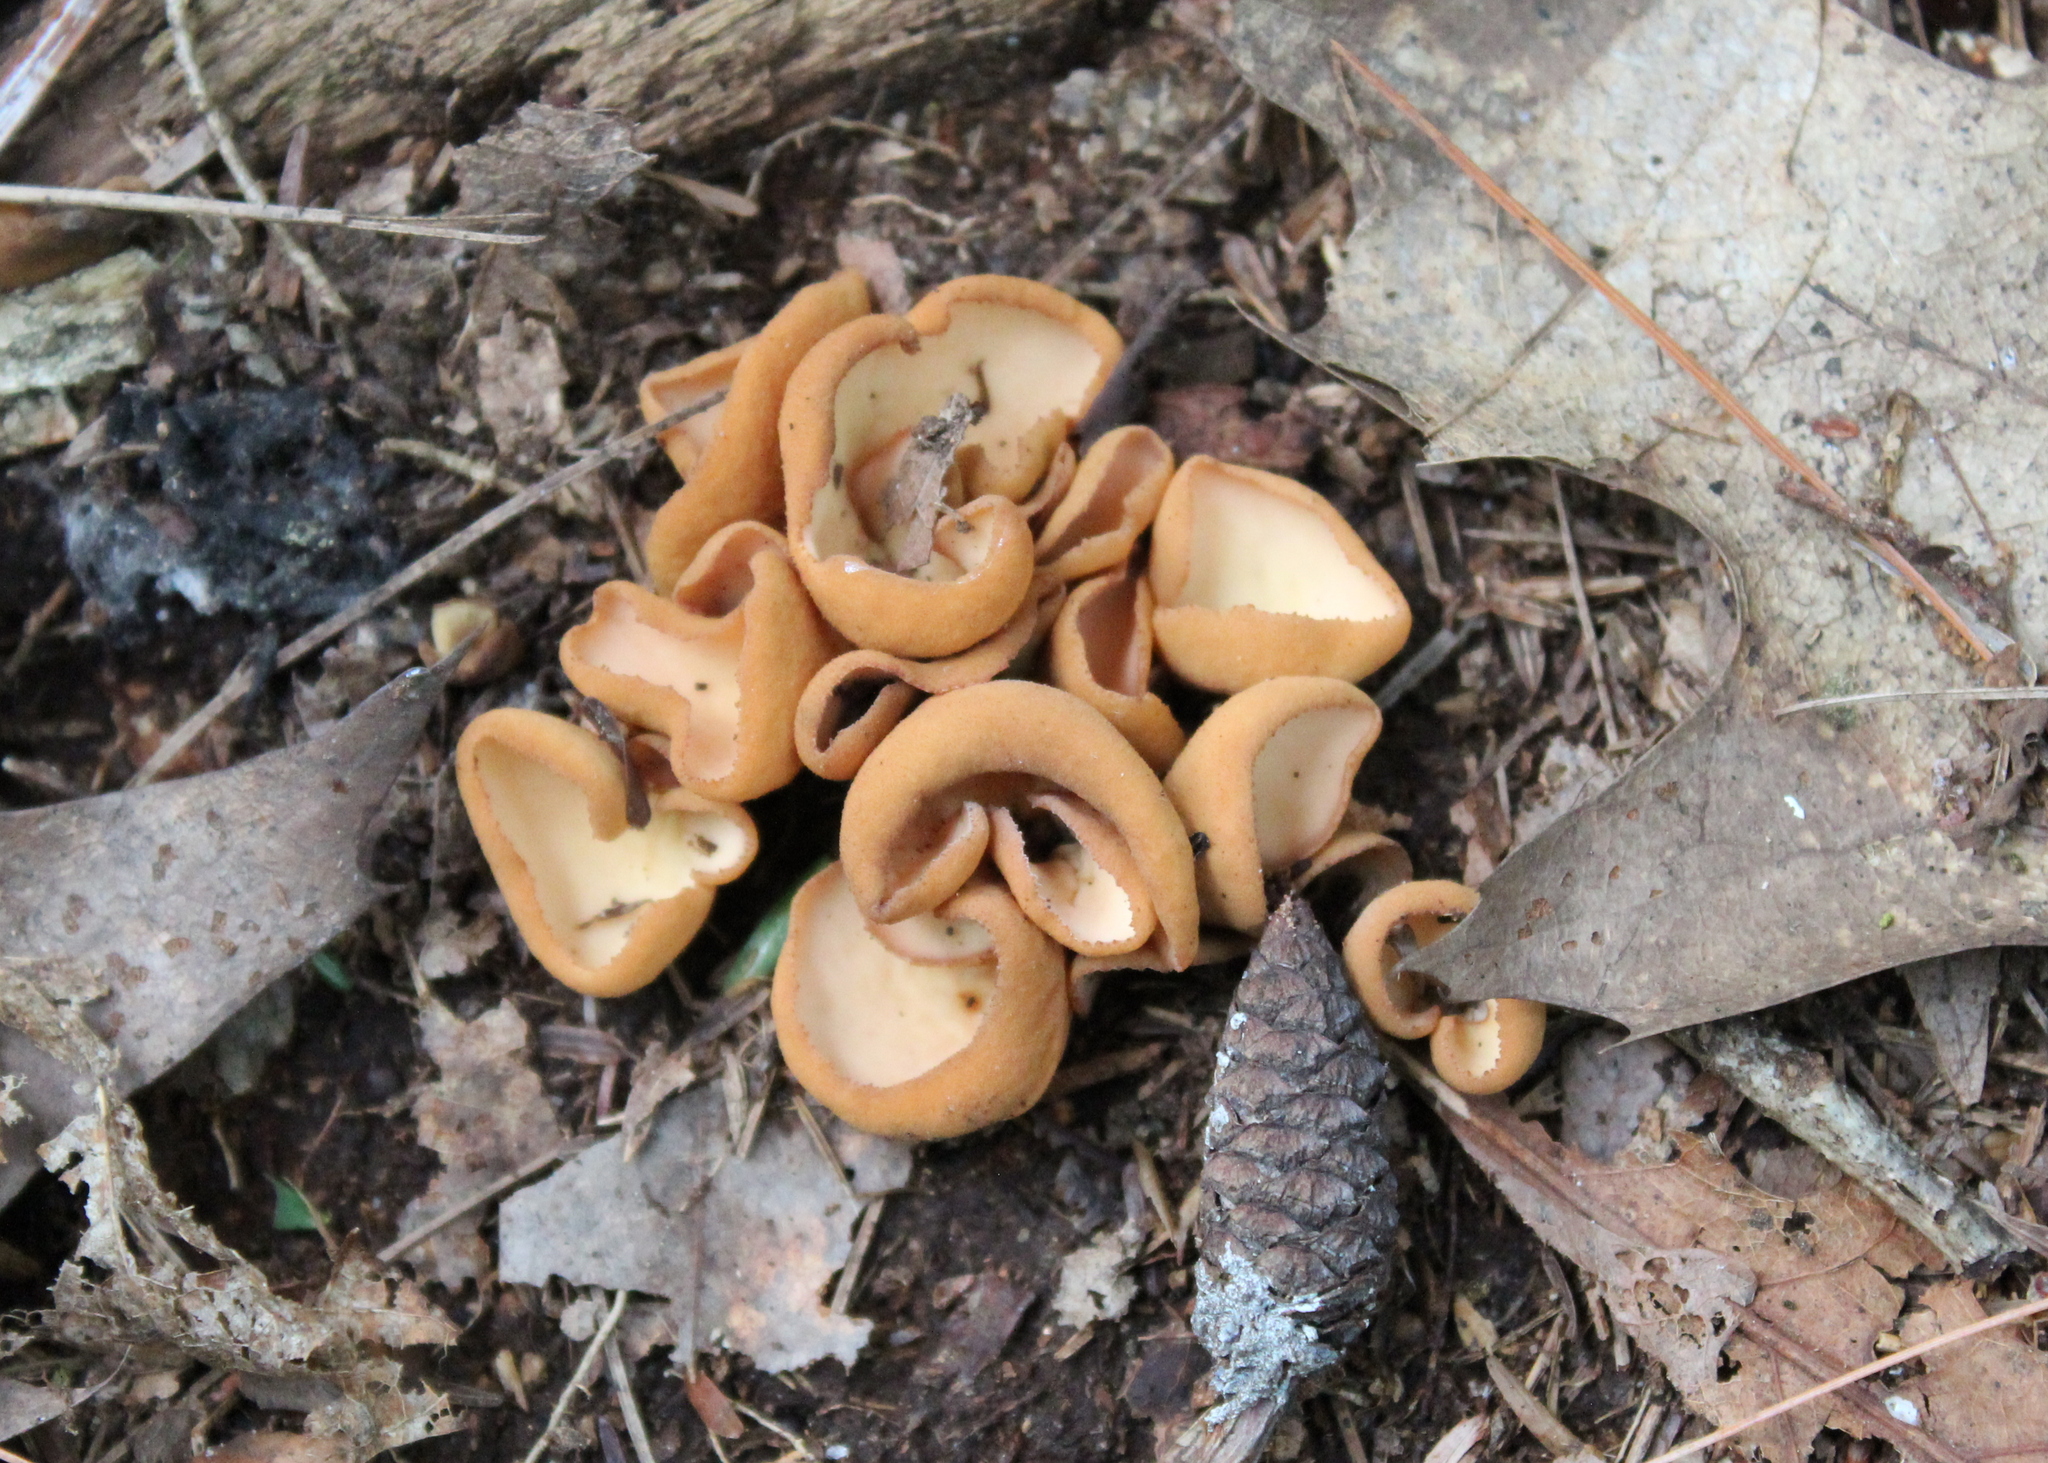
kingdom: Fungi
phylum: Ascomycota
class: Pezizomycetes
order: Pezizales
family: Otideaceae
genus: Otidea
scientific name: Otidea onotica
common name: Hare's ear
